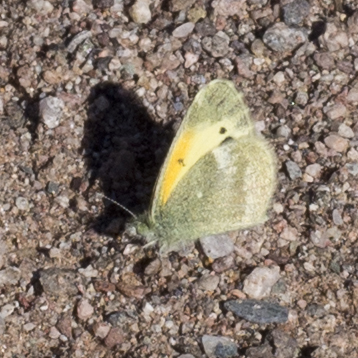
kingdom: Animalia
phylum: Arthropoda
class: Insecta
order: Lepidoptera
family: Pieridae
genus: Nathalis
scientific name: Nathalis iole
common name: Dainty sulphur
